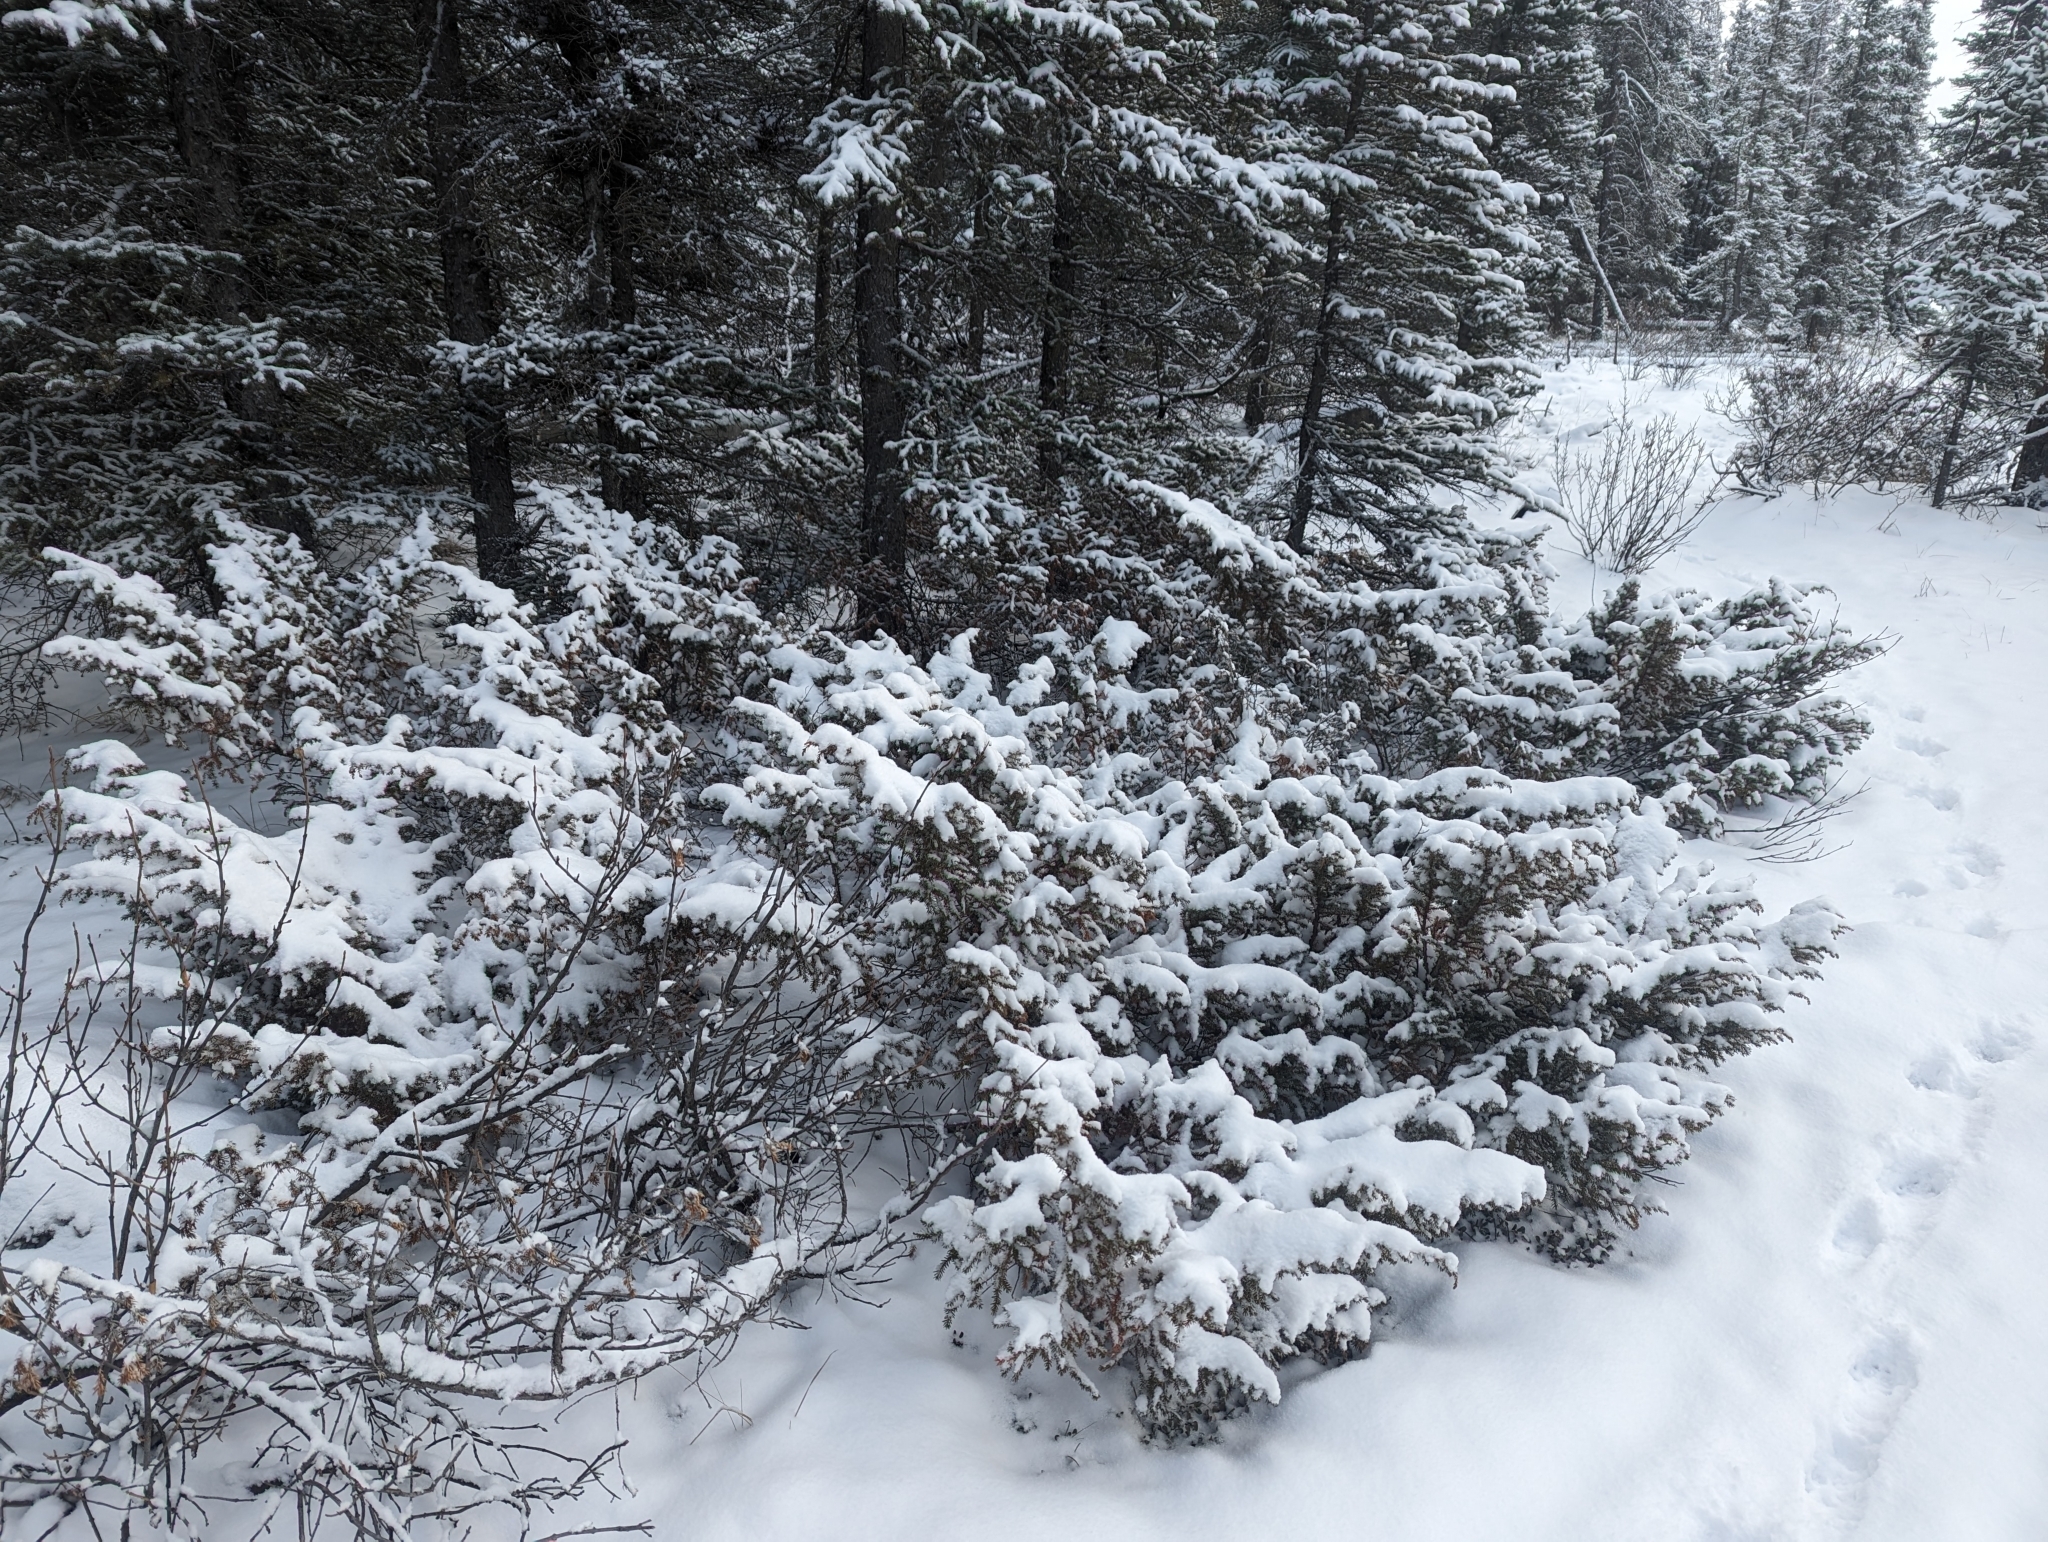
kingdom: Plantae
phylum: Tracheophyta
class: Pinopsida
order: Pinales
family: Cupressaceae
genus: Juniperus
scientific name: Juniperus communis
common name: Common juniper
